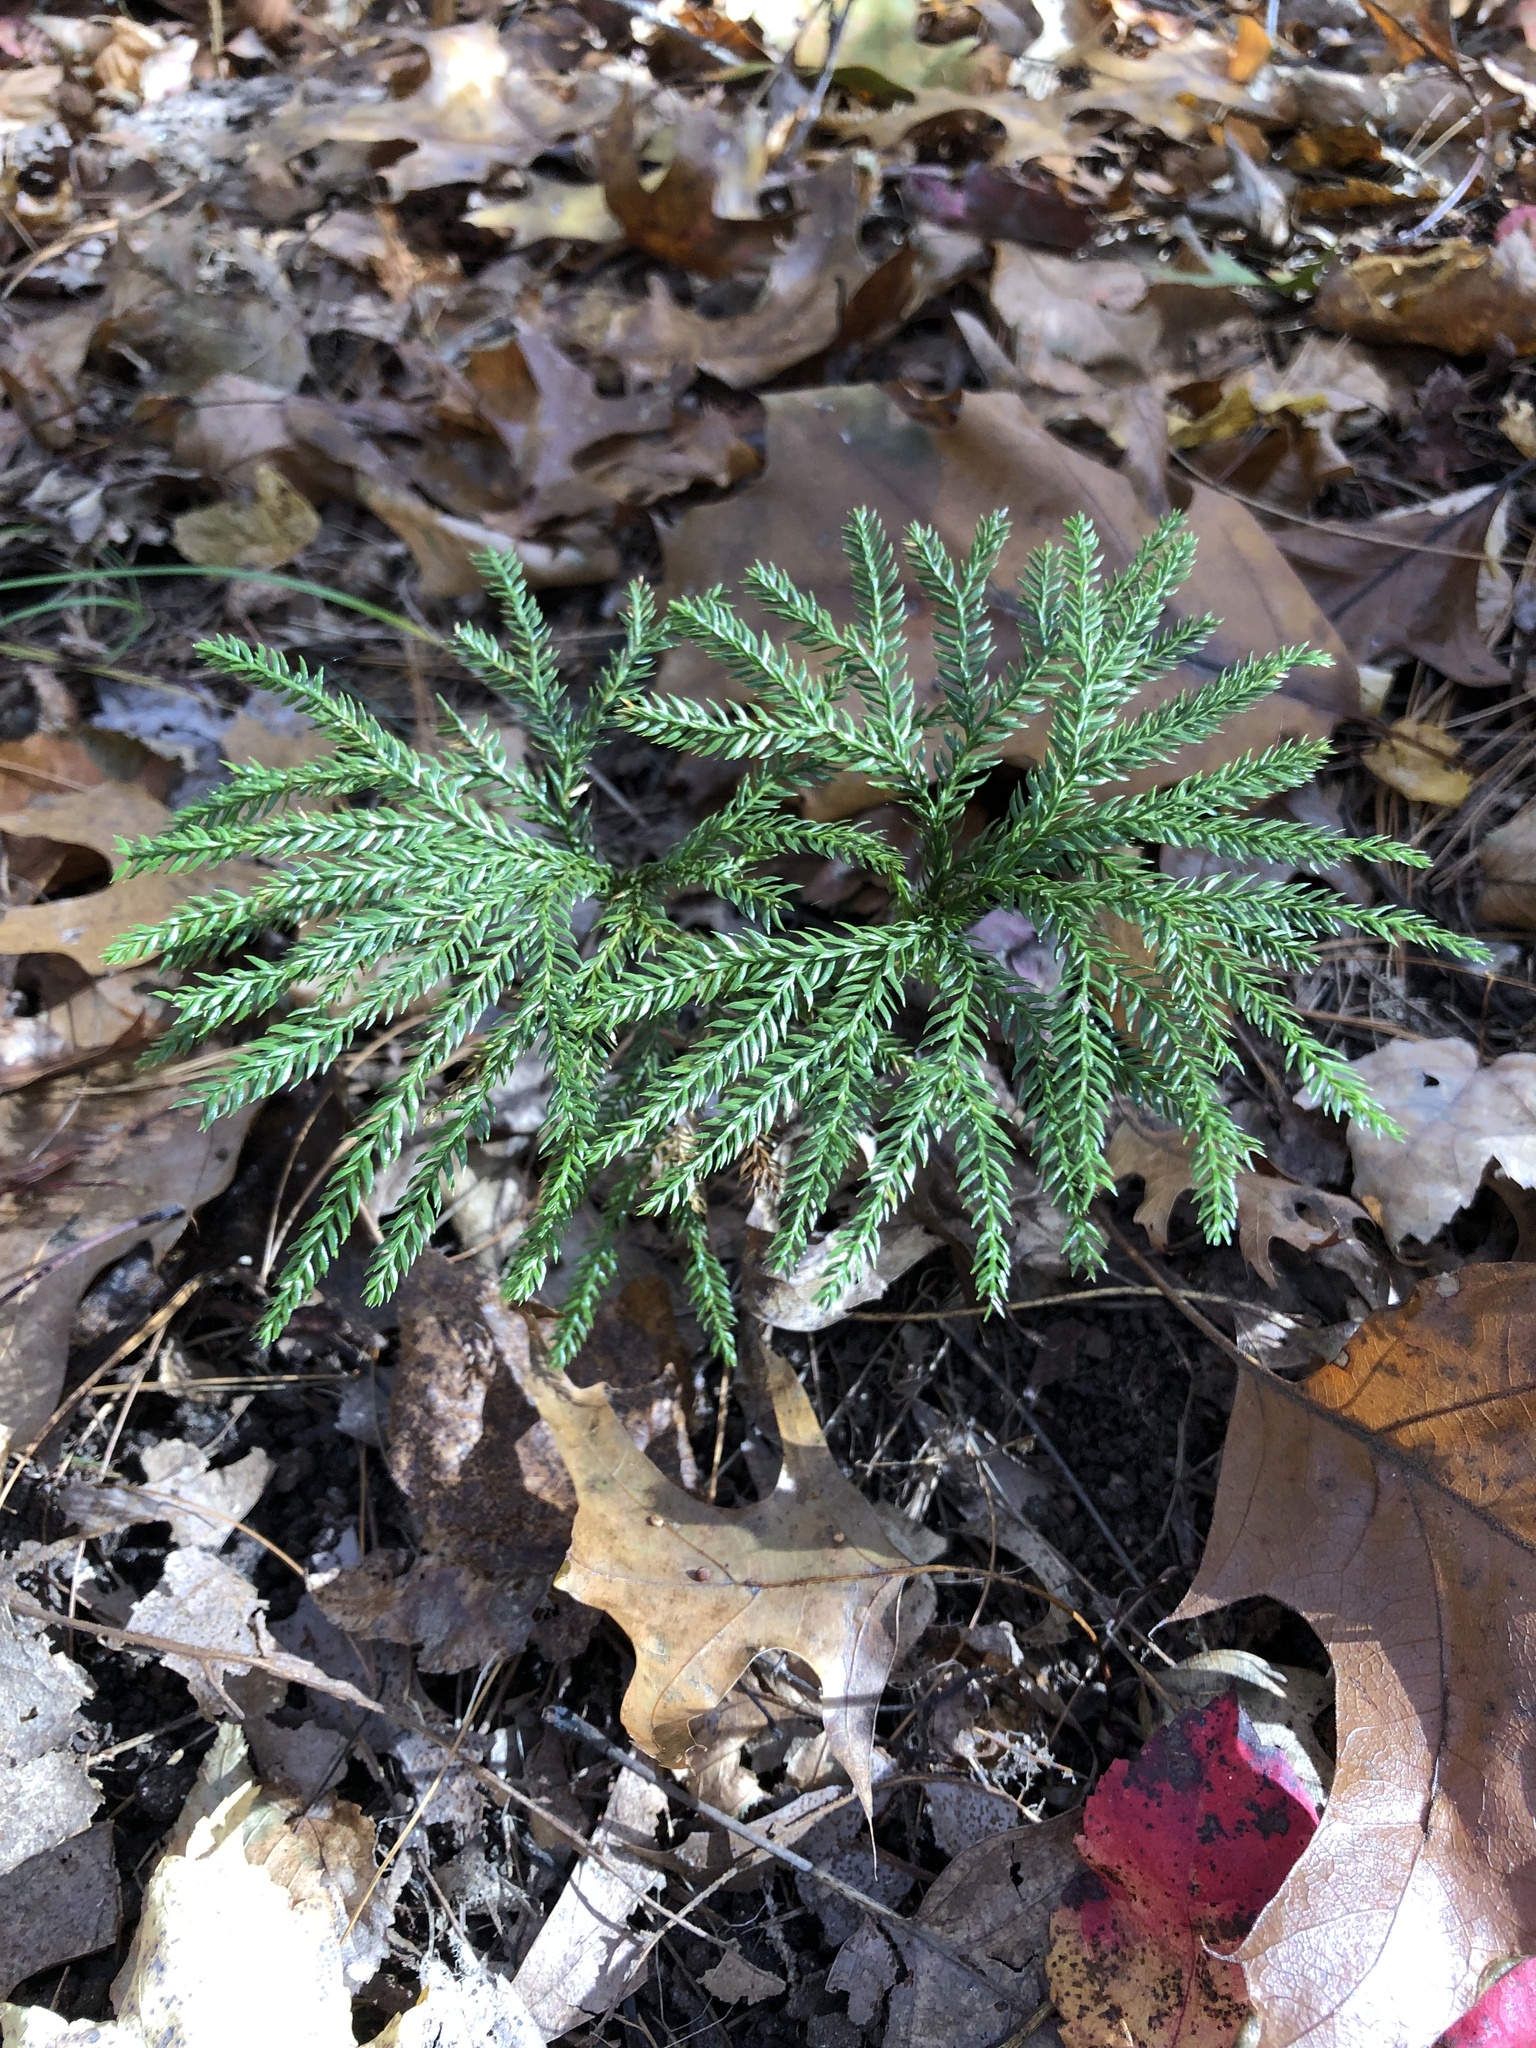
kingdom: Plantae
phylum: Tracheophyta
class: Lycopodiopsida
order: Lycopodiales
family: Lycopodiaceae
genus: Dendrolycopodium
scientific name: Dendrolycopodium obscurum
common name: Common ground-pine
